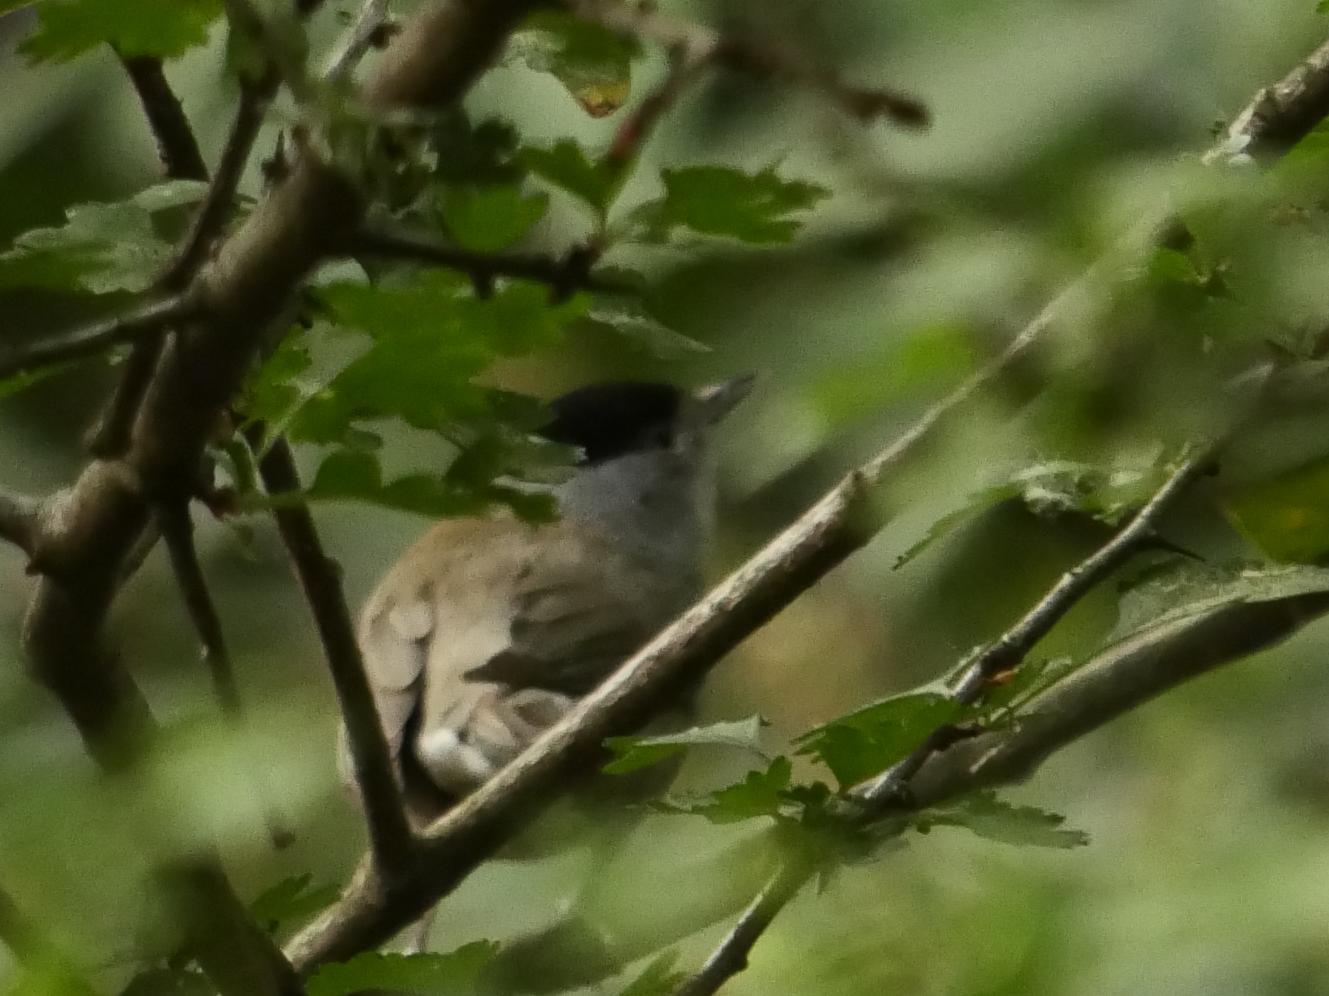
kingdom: Animalia
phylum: Chordata
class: Aves
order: Passeriformes
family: Sylviidae
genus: Sylvia
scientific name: Sylvia atricapilla
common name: Eurasian blackcap
